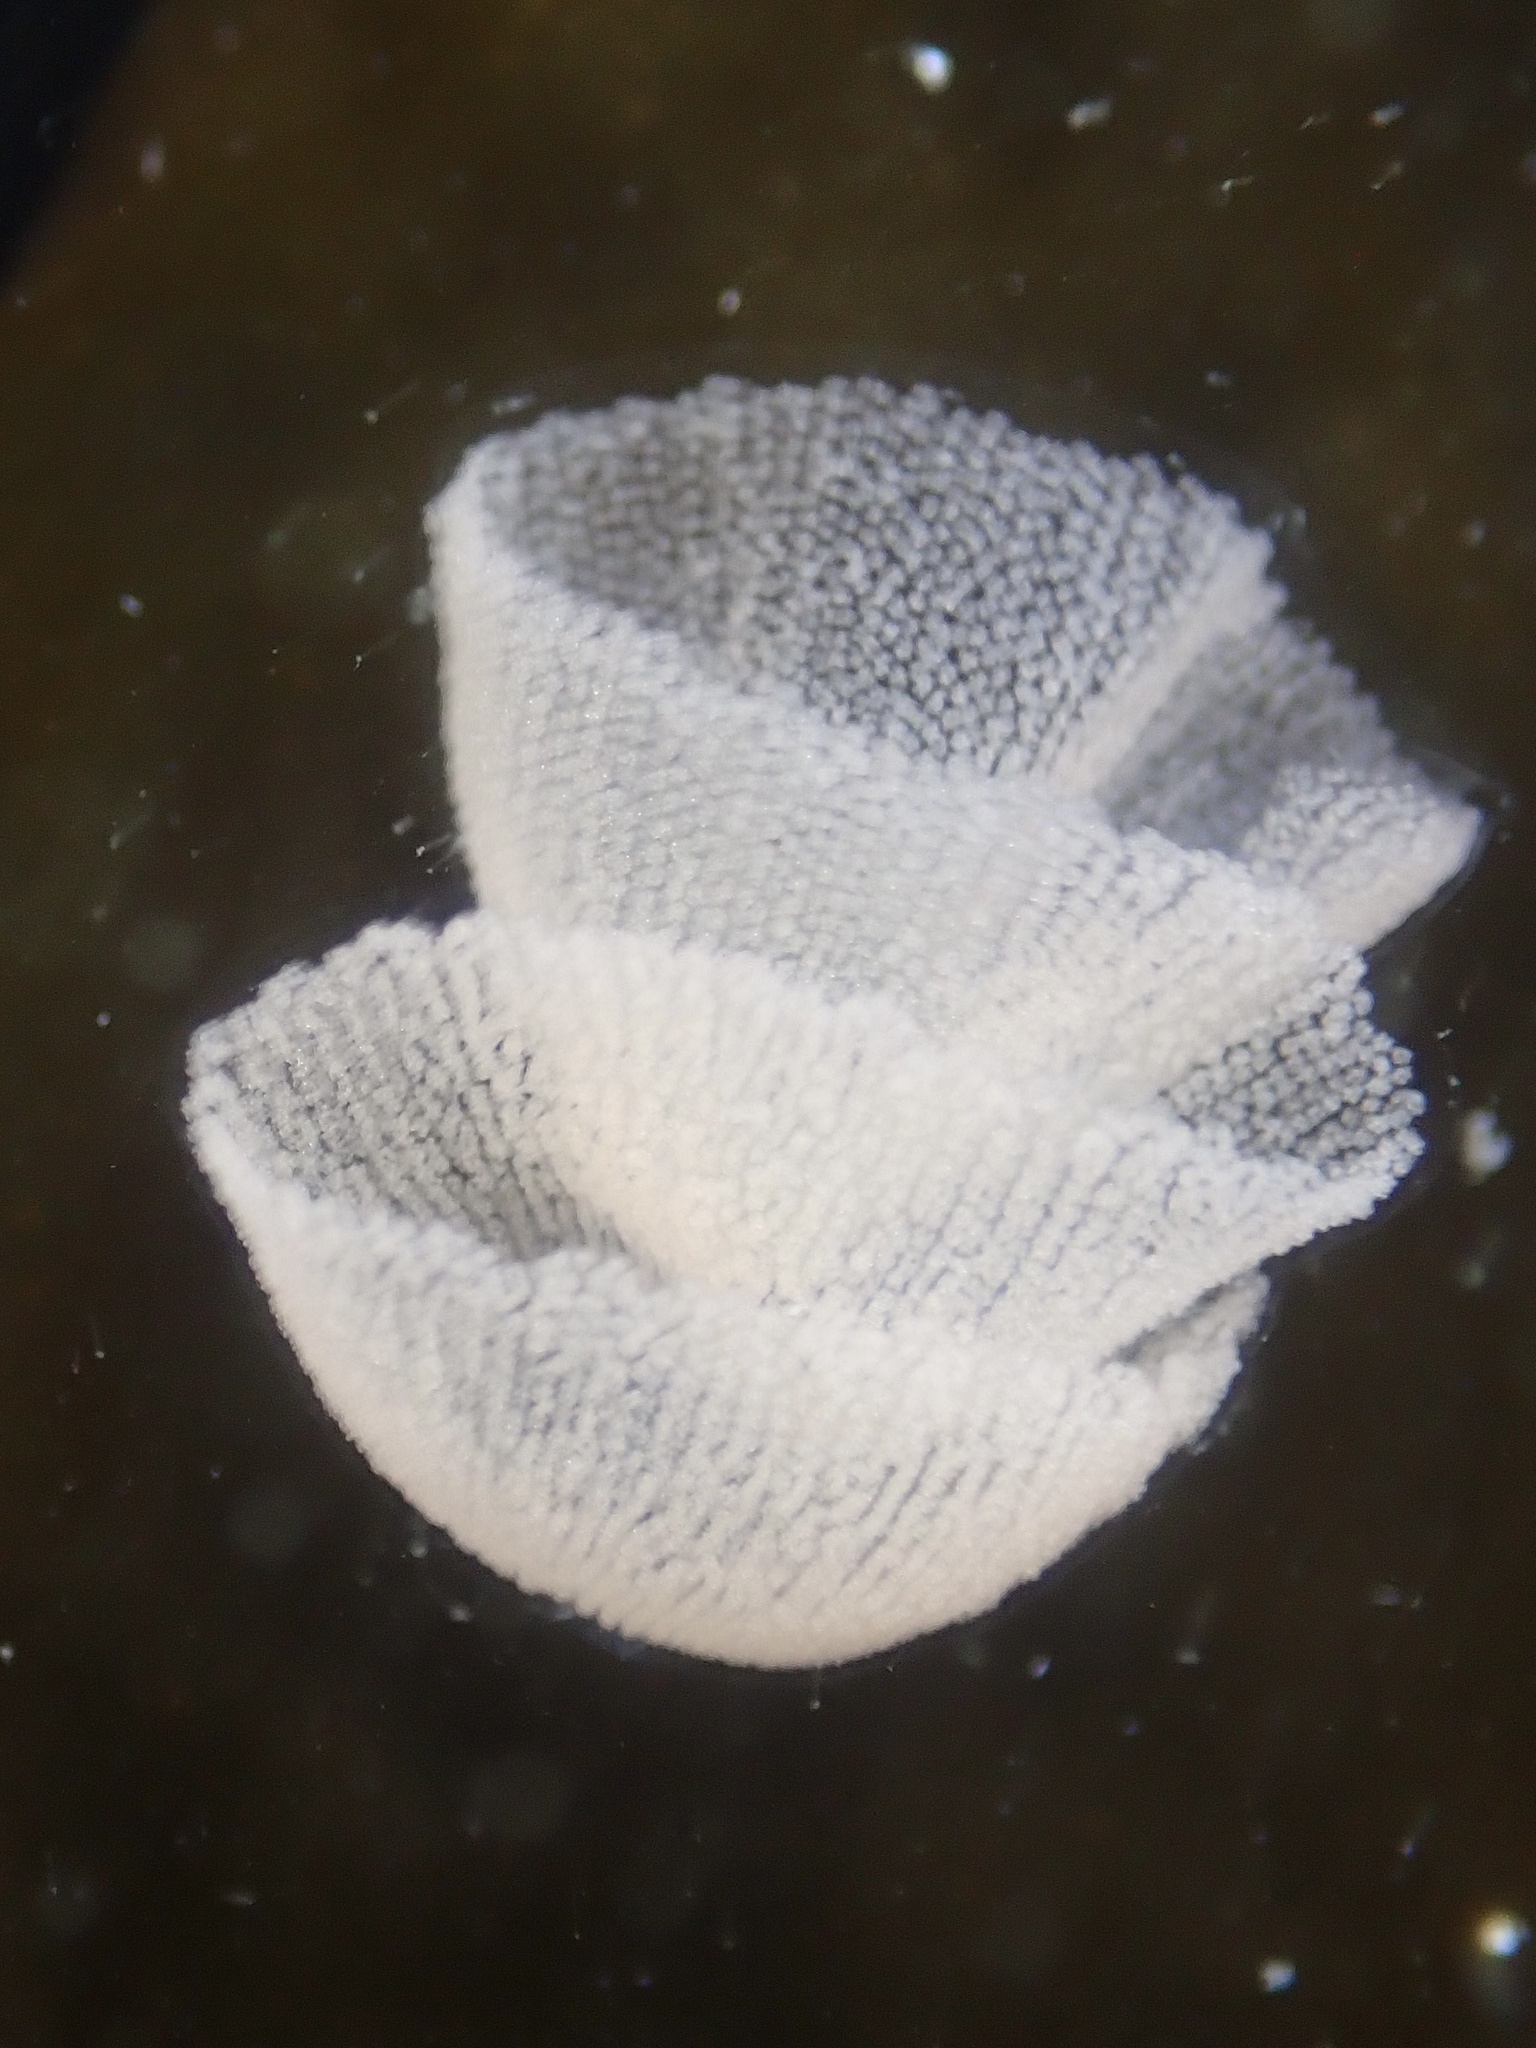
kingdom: Animalia
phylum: Mollusca
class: Gastropoda
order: Nudibranchia
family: Tethydidae
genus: Melibe
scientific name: Melibe leonina
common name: Lion nudibranch
